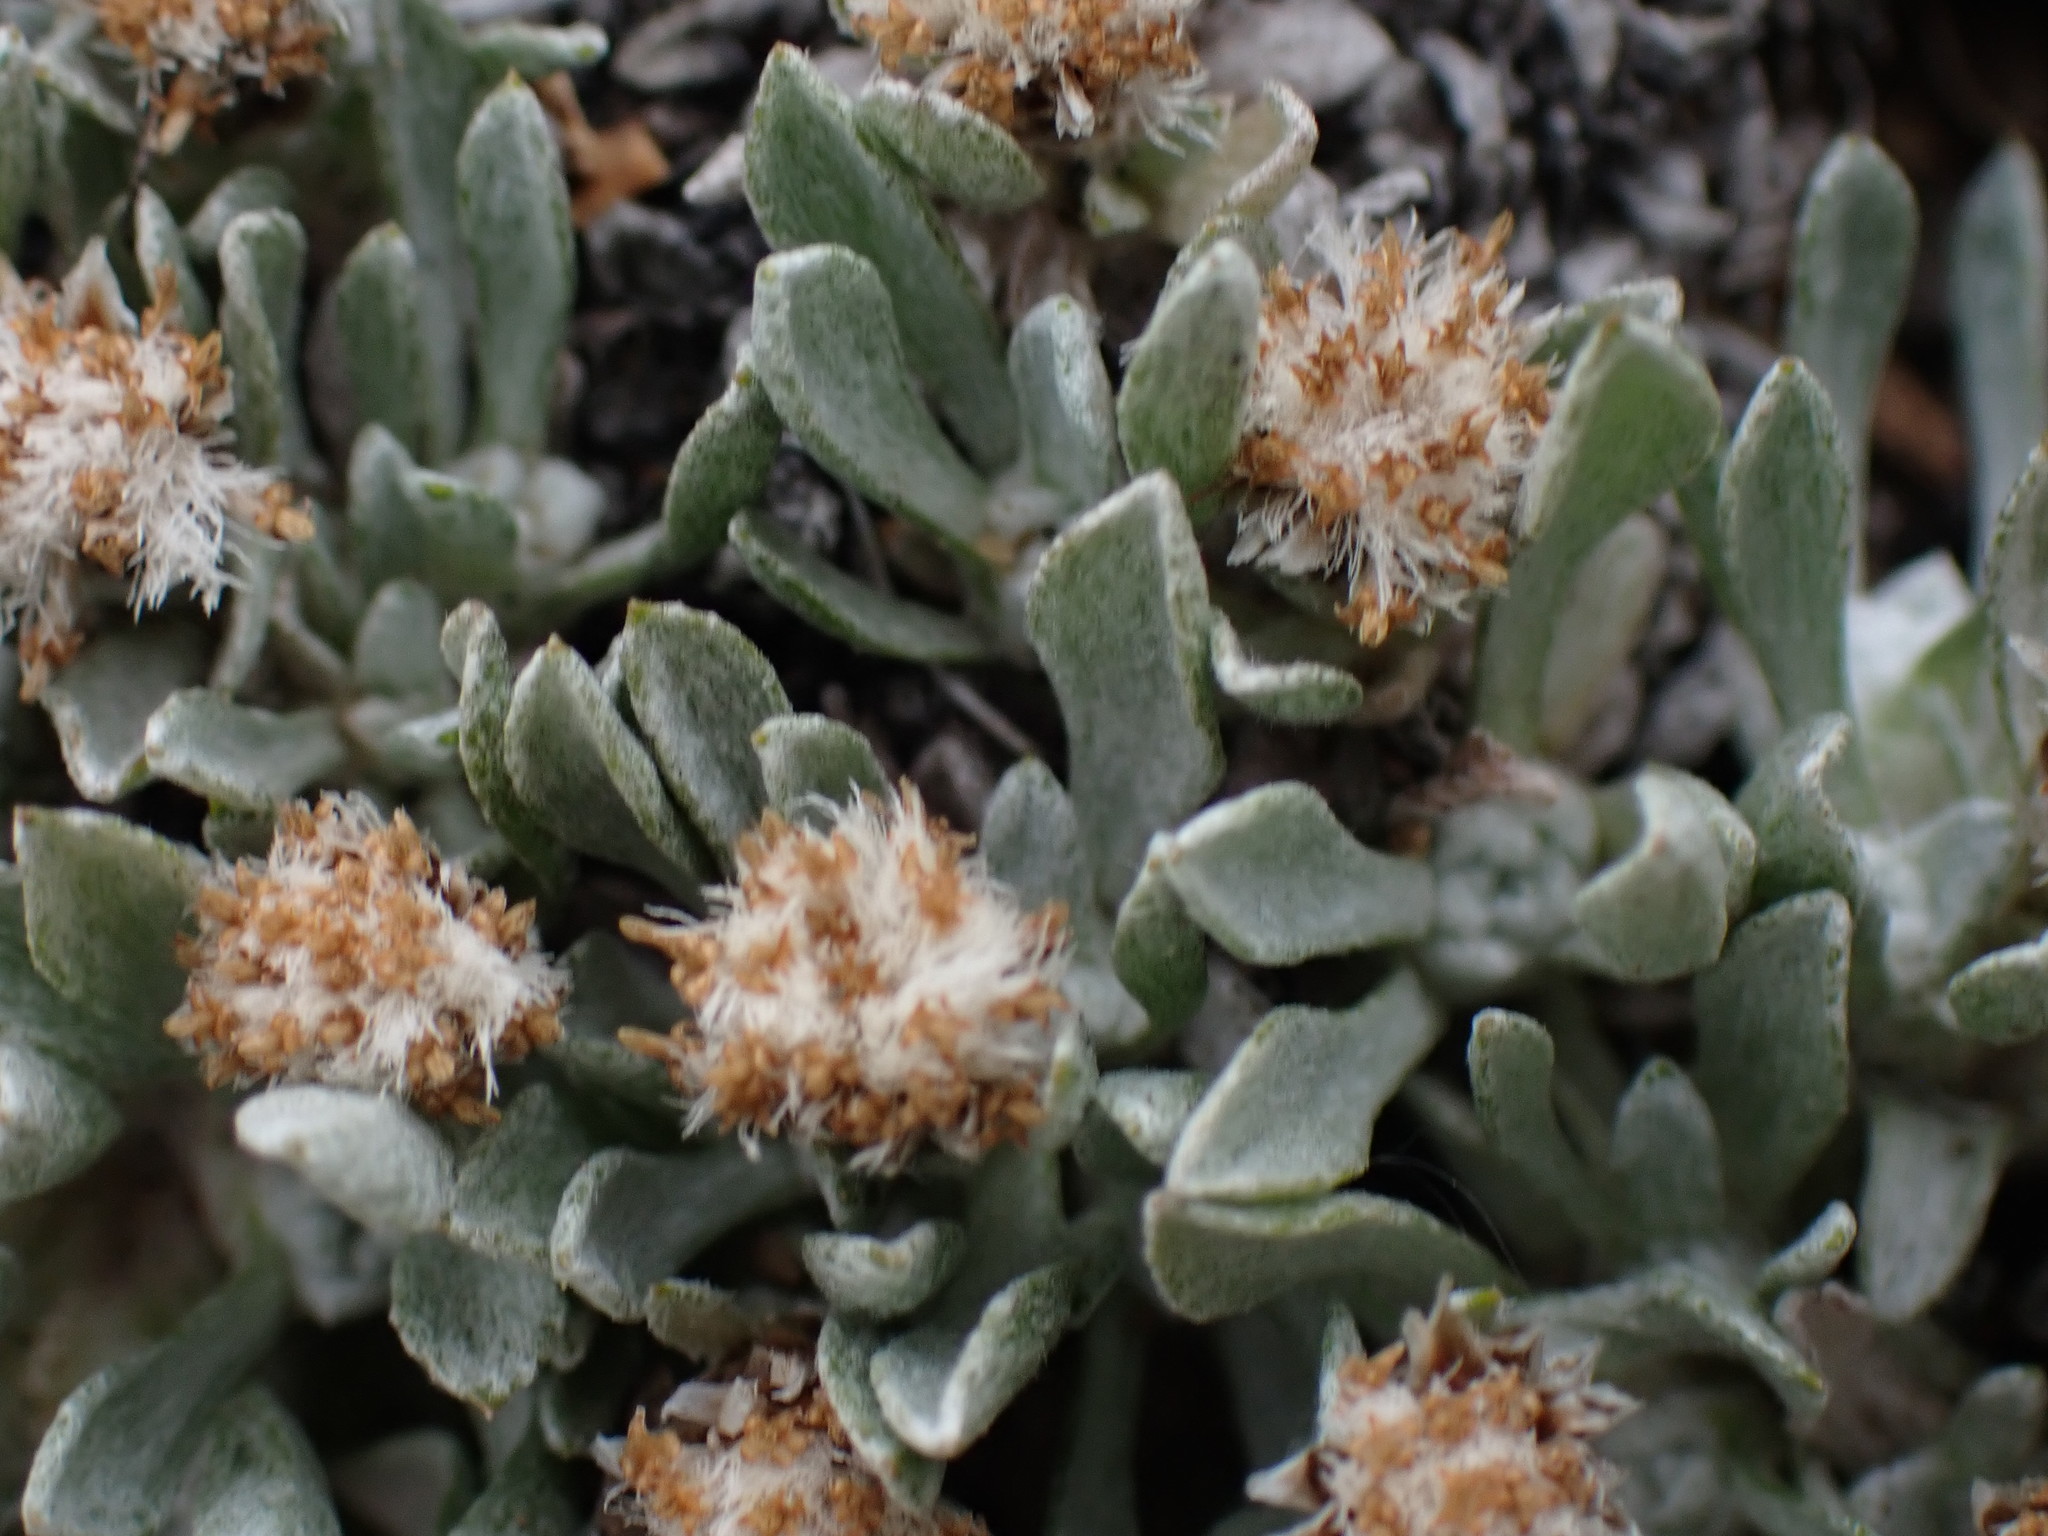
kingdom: Plantae
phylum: Tracheophyta
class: Magnoliopsida
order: Asterales
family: Asteraceae
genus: Antennaria
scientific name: Antennaria dimorpha
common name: Cushion pussytoes
